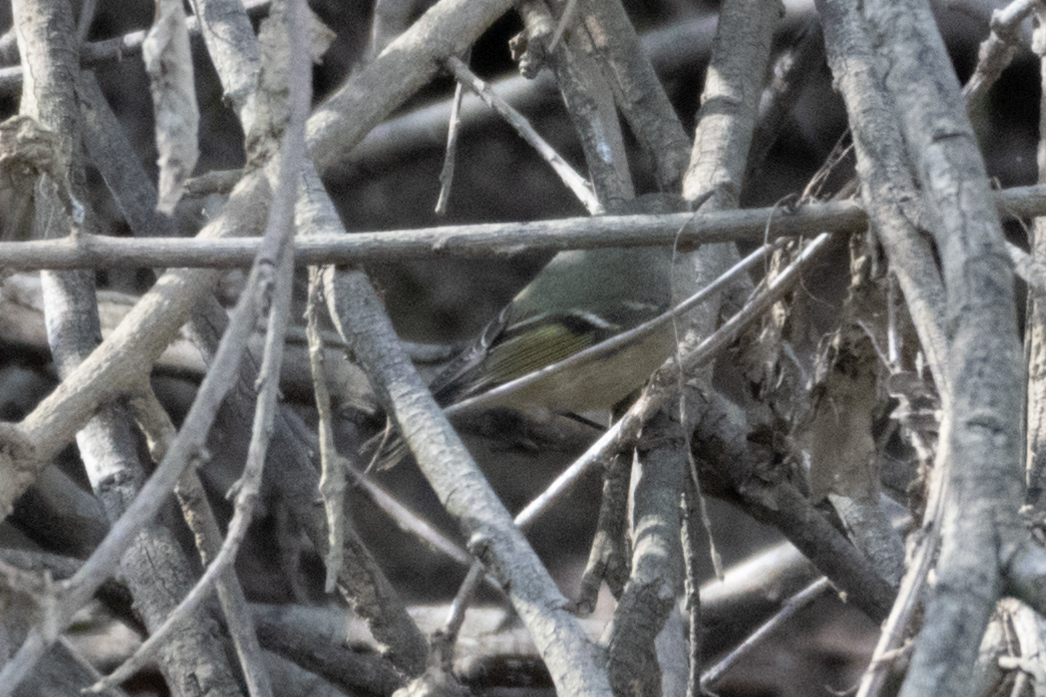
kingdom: Animalia
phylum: Chordata
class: Aves
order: Passeriformes
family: Regulidae
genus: Regulus
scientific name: Regulus calendula
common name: Ruby-crowned kinglet
